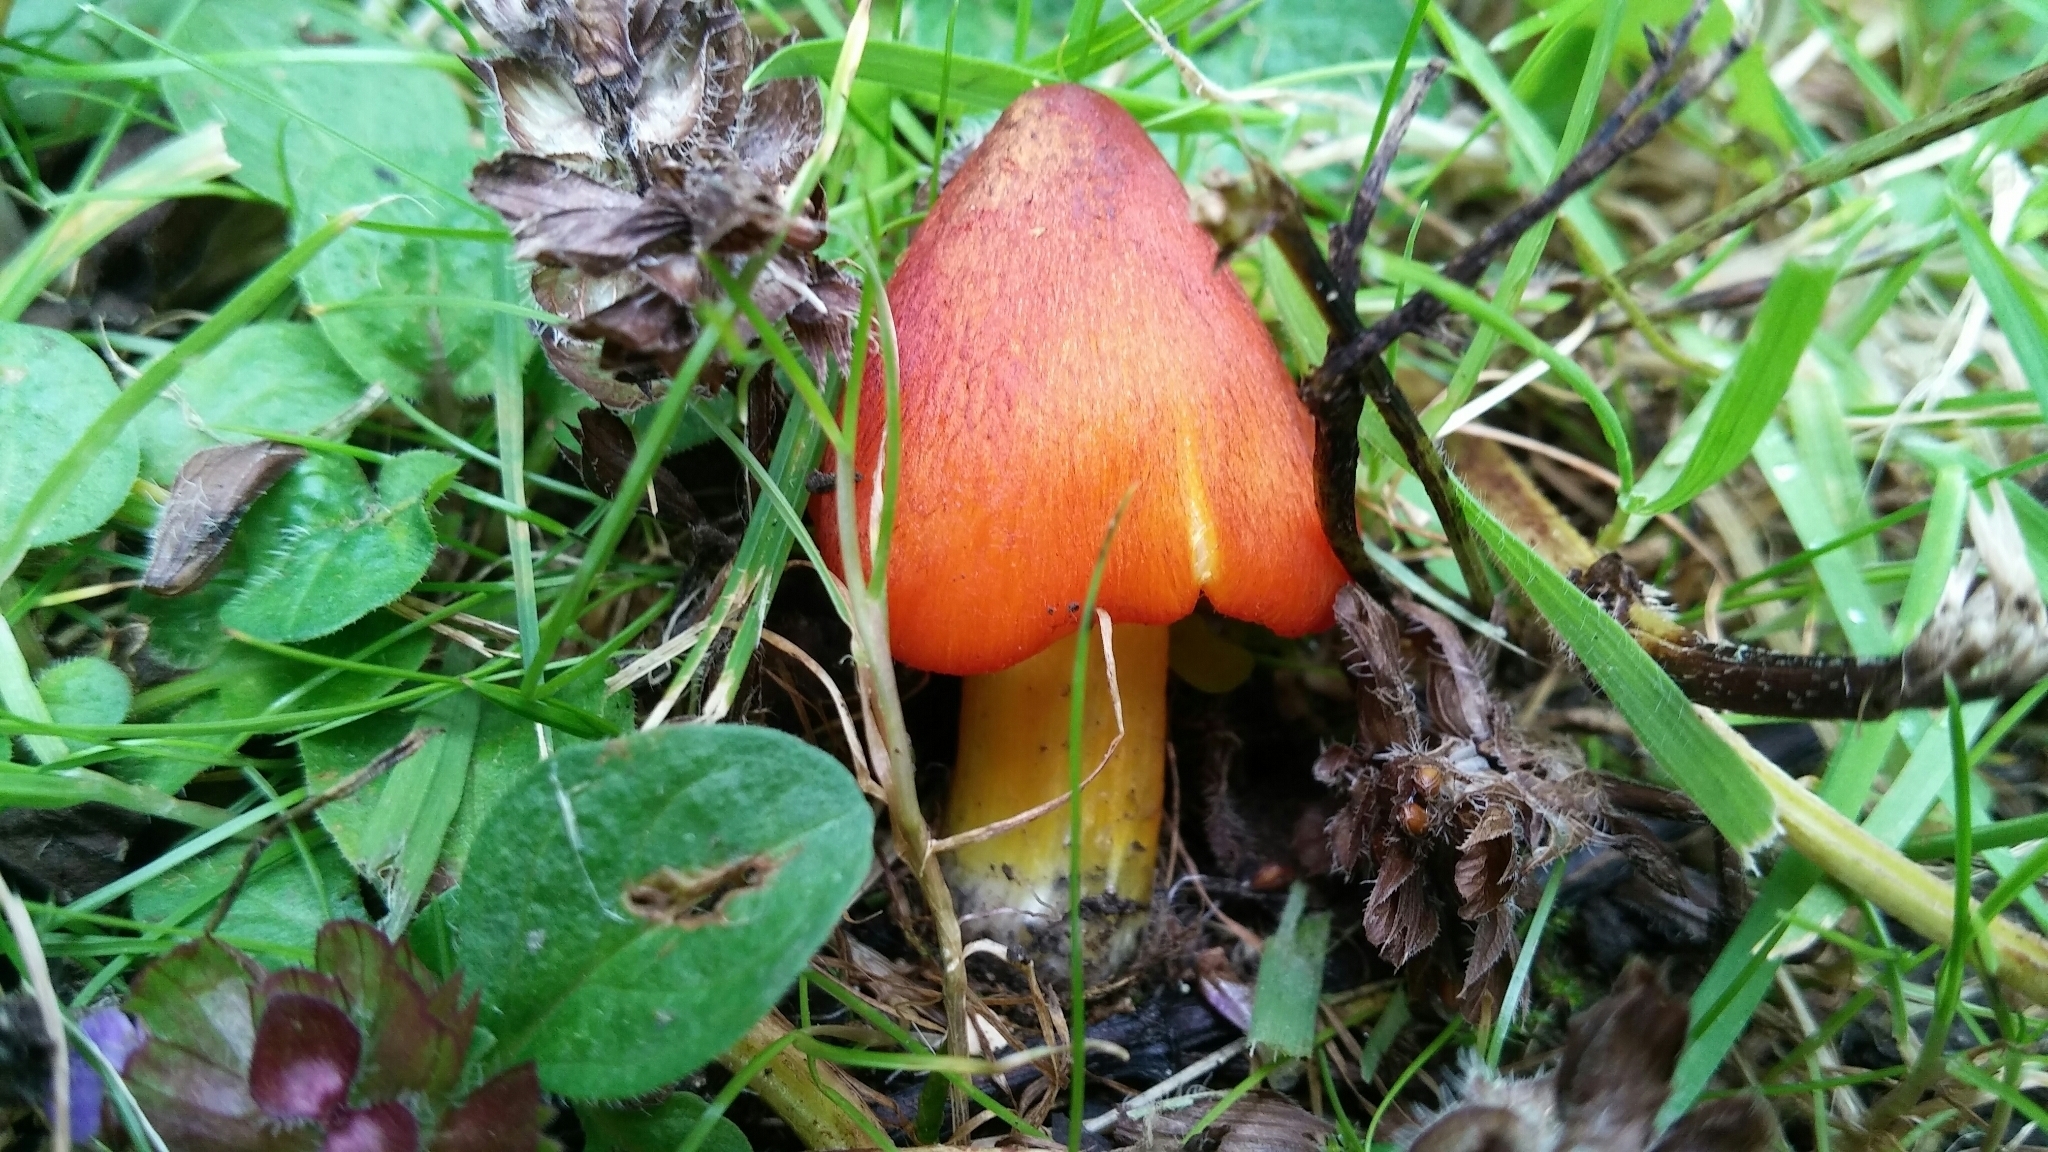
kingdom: Fungi
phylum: Basidiomycota
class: Agaricomycetes
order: Agaricales
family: Hygrophoraceae
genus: Hygrocybe
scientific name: Hygrocybe conica
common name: Blackening wax-cap
